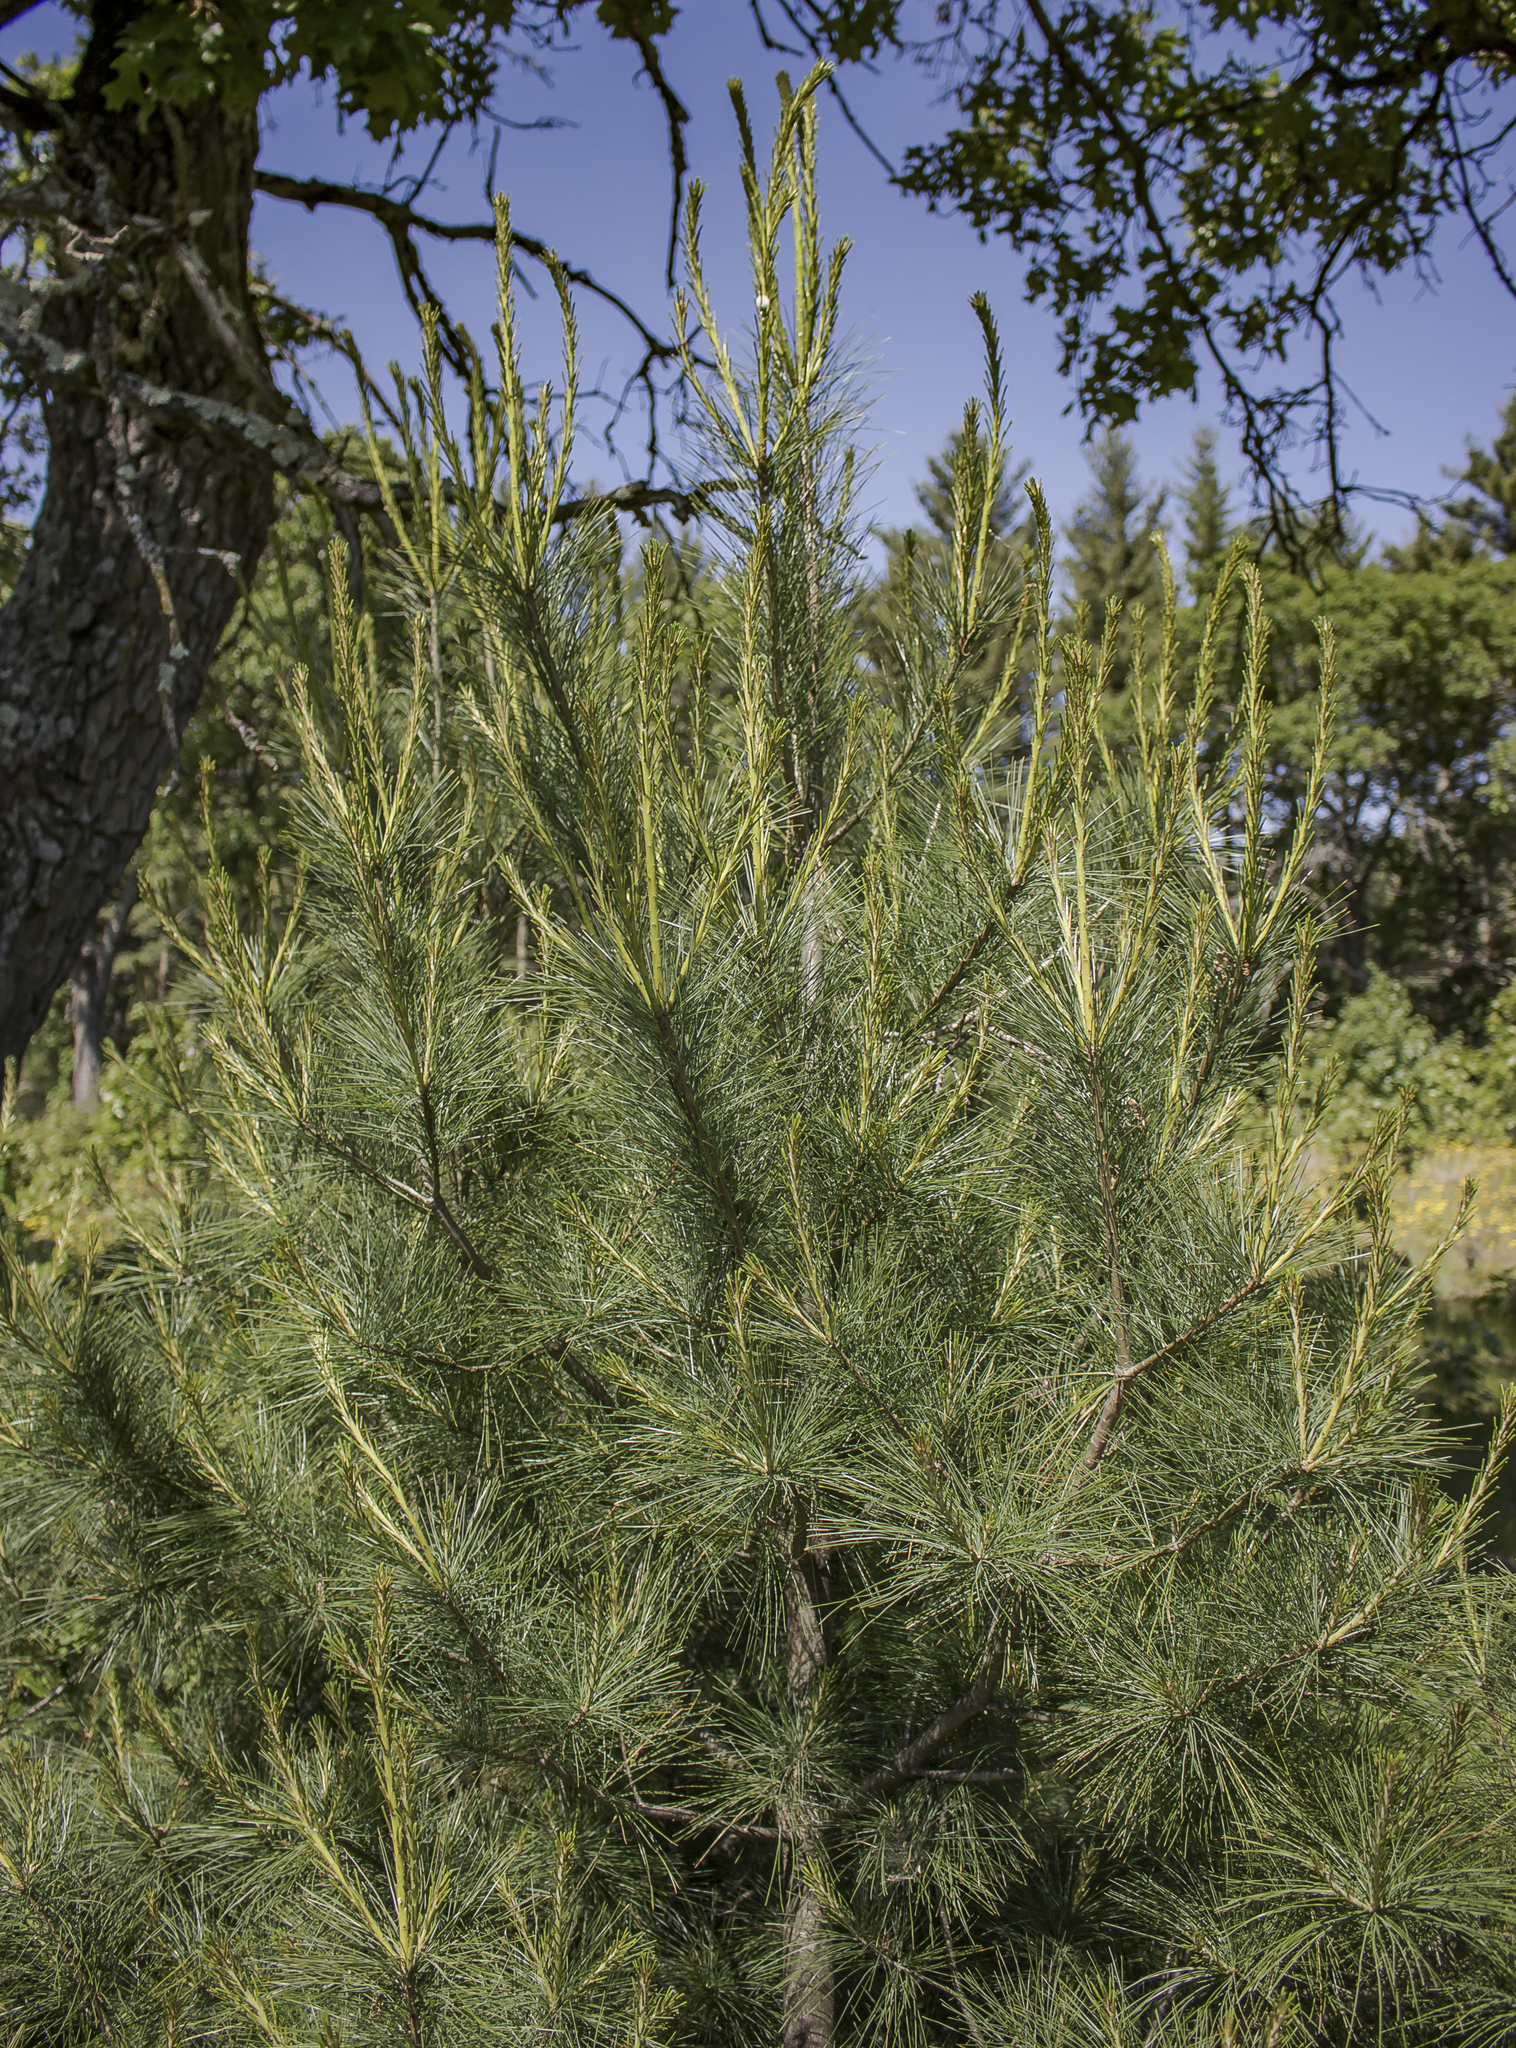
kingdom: Plantae
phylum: Tracheophyta
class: Pinopsida
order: Pinales
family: Pinaceae
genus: Pinus
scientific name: Pinus strobus
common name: Weymouth pine
